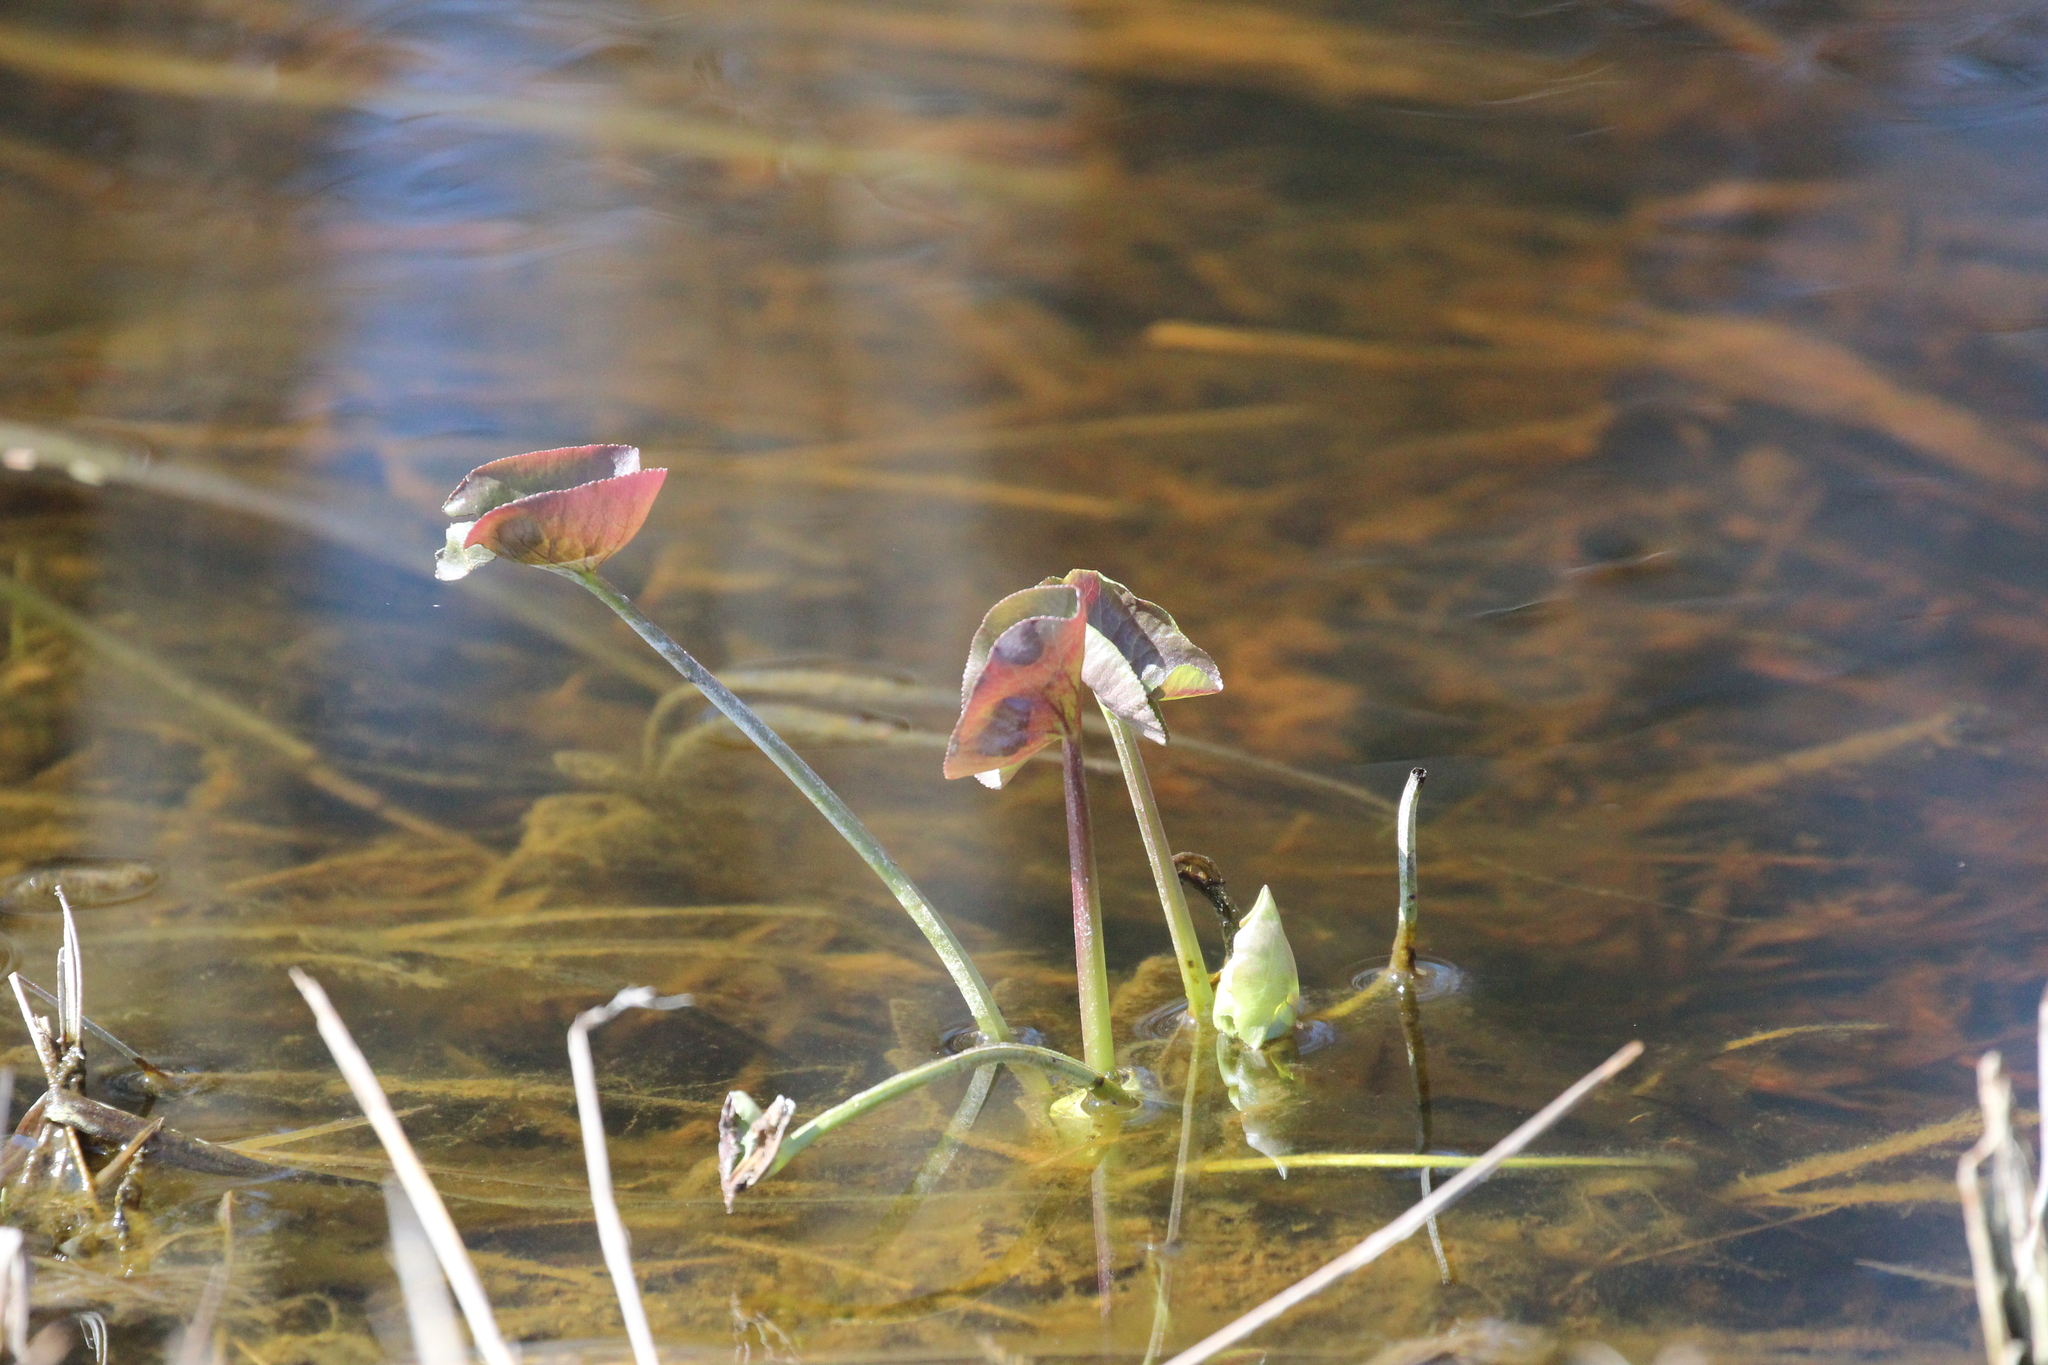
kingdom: Plantae
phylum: Tracheophyta
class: Magnoliopsida
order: Ranunculales
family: Ranunculaceae
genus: Caltha
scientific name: Caltha palustris
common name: Marsh marigold
